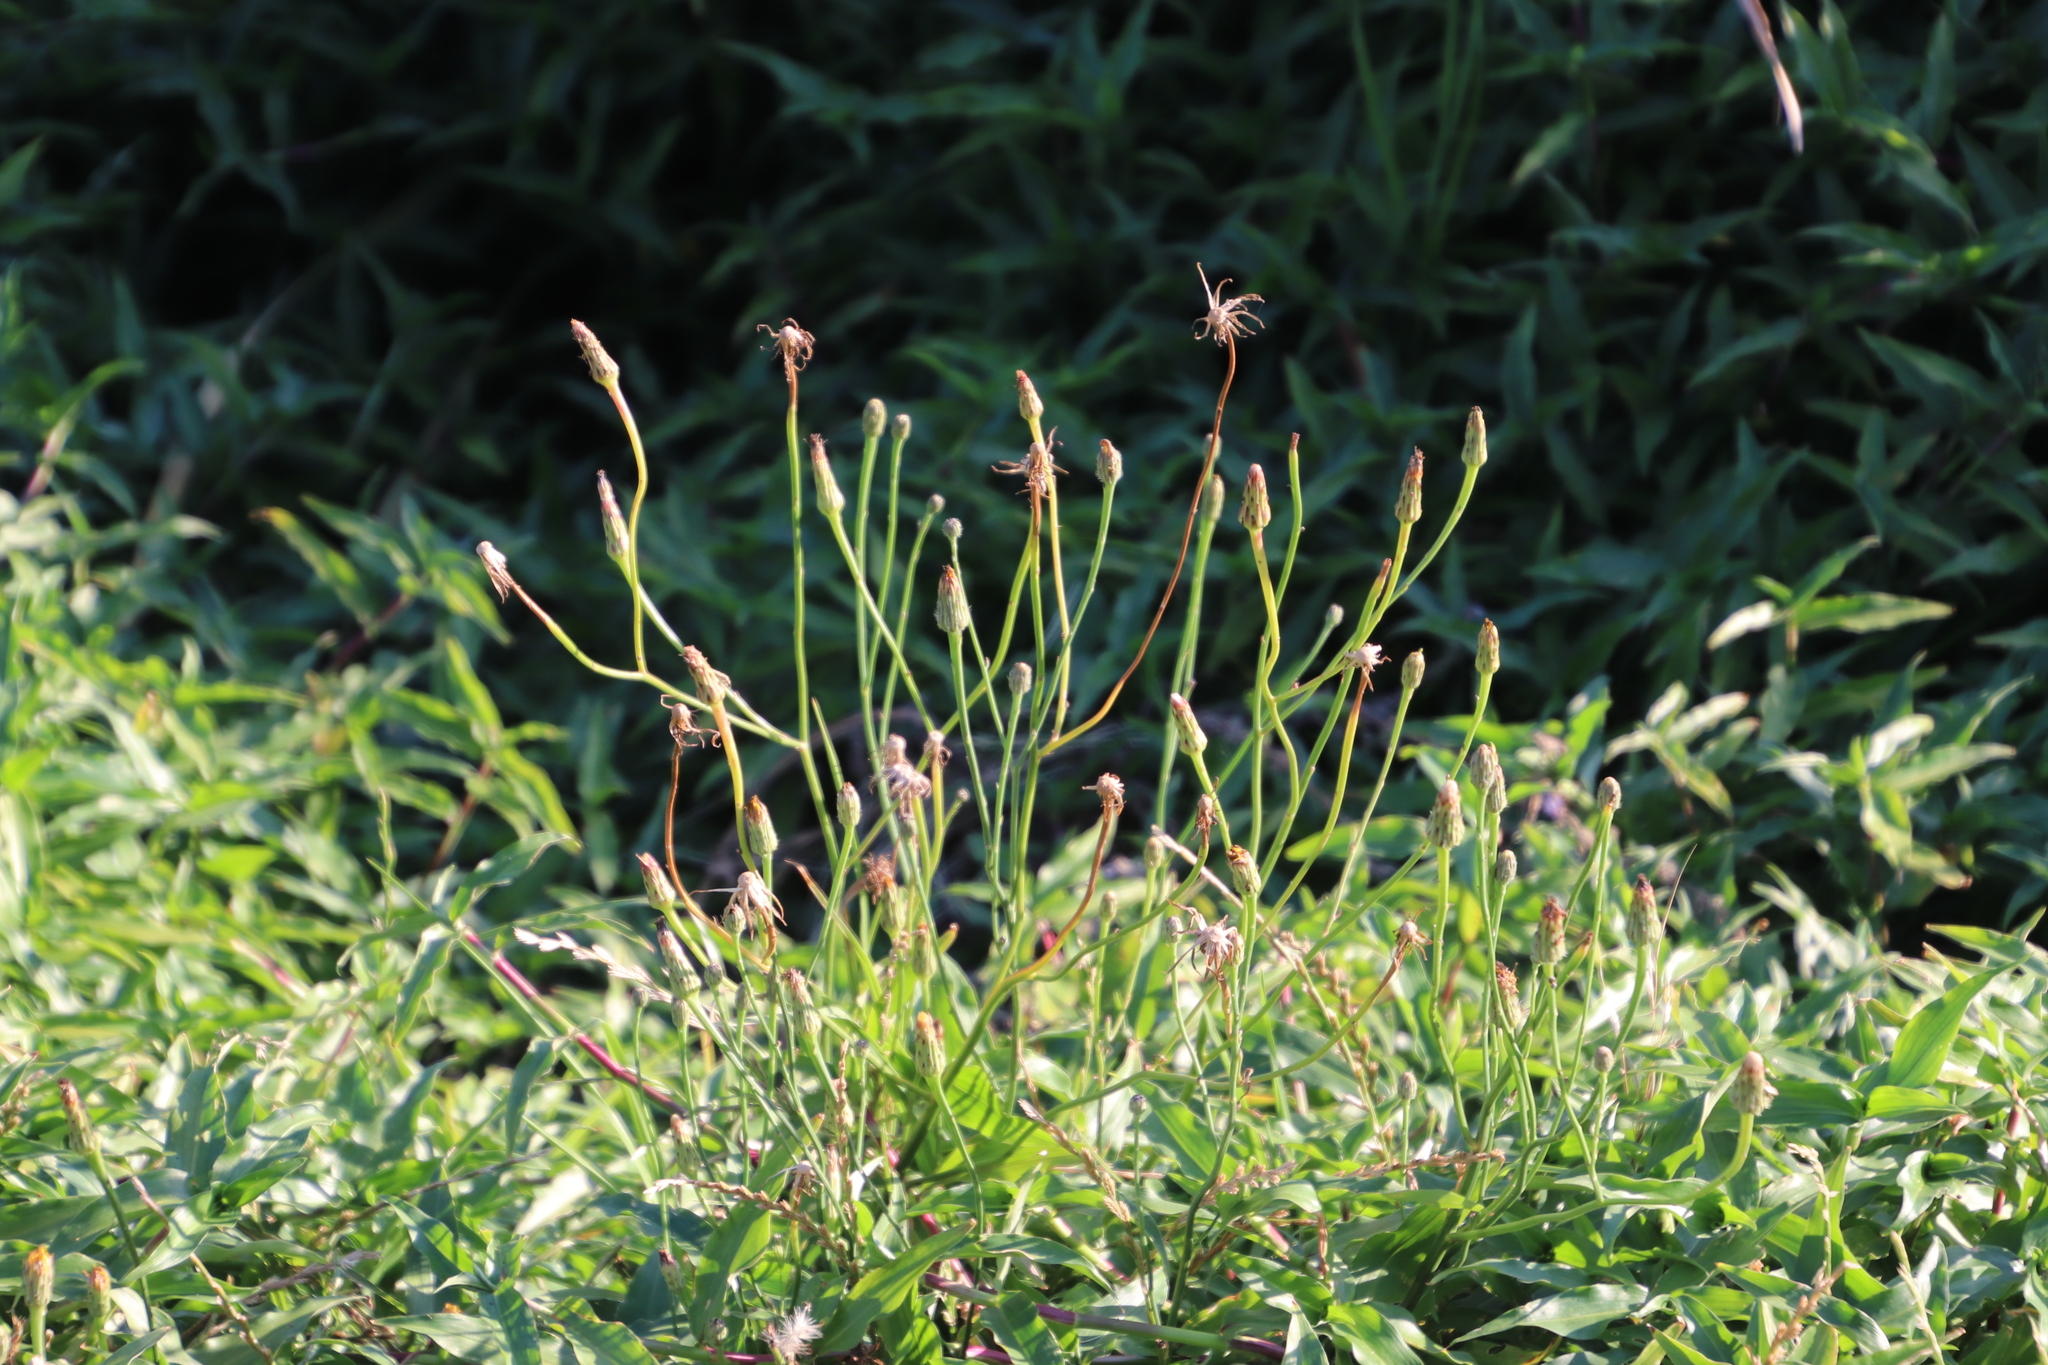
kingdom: Plantae
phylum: Tracheophyta
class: Magnoliopsida
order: Asterales
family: Asteraceae
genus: Hypochaeris
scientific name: Hypochaeris radicata
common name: Flatweed
